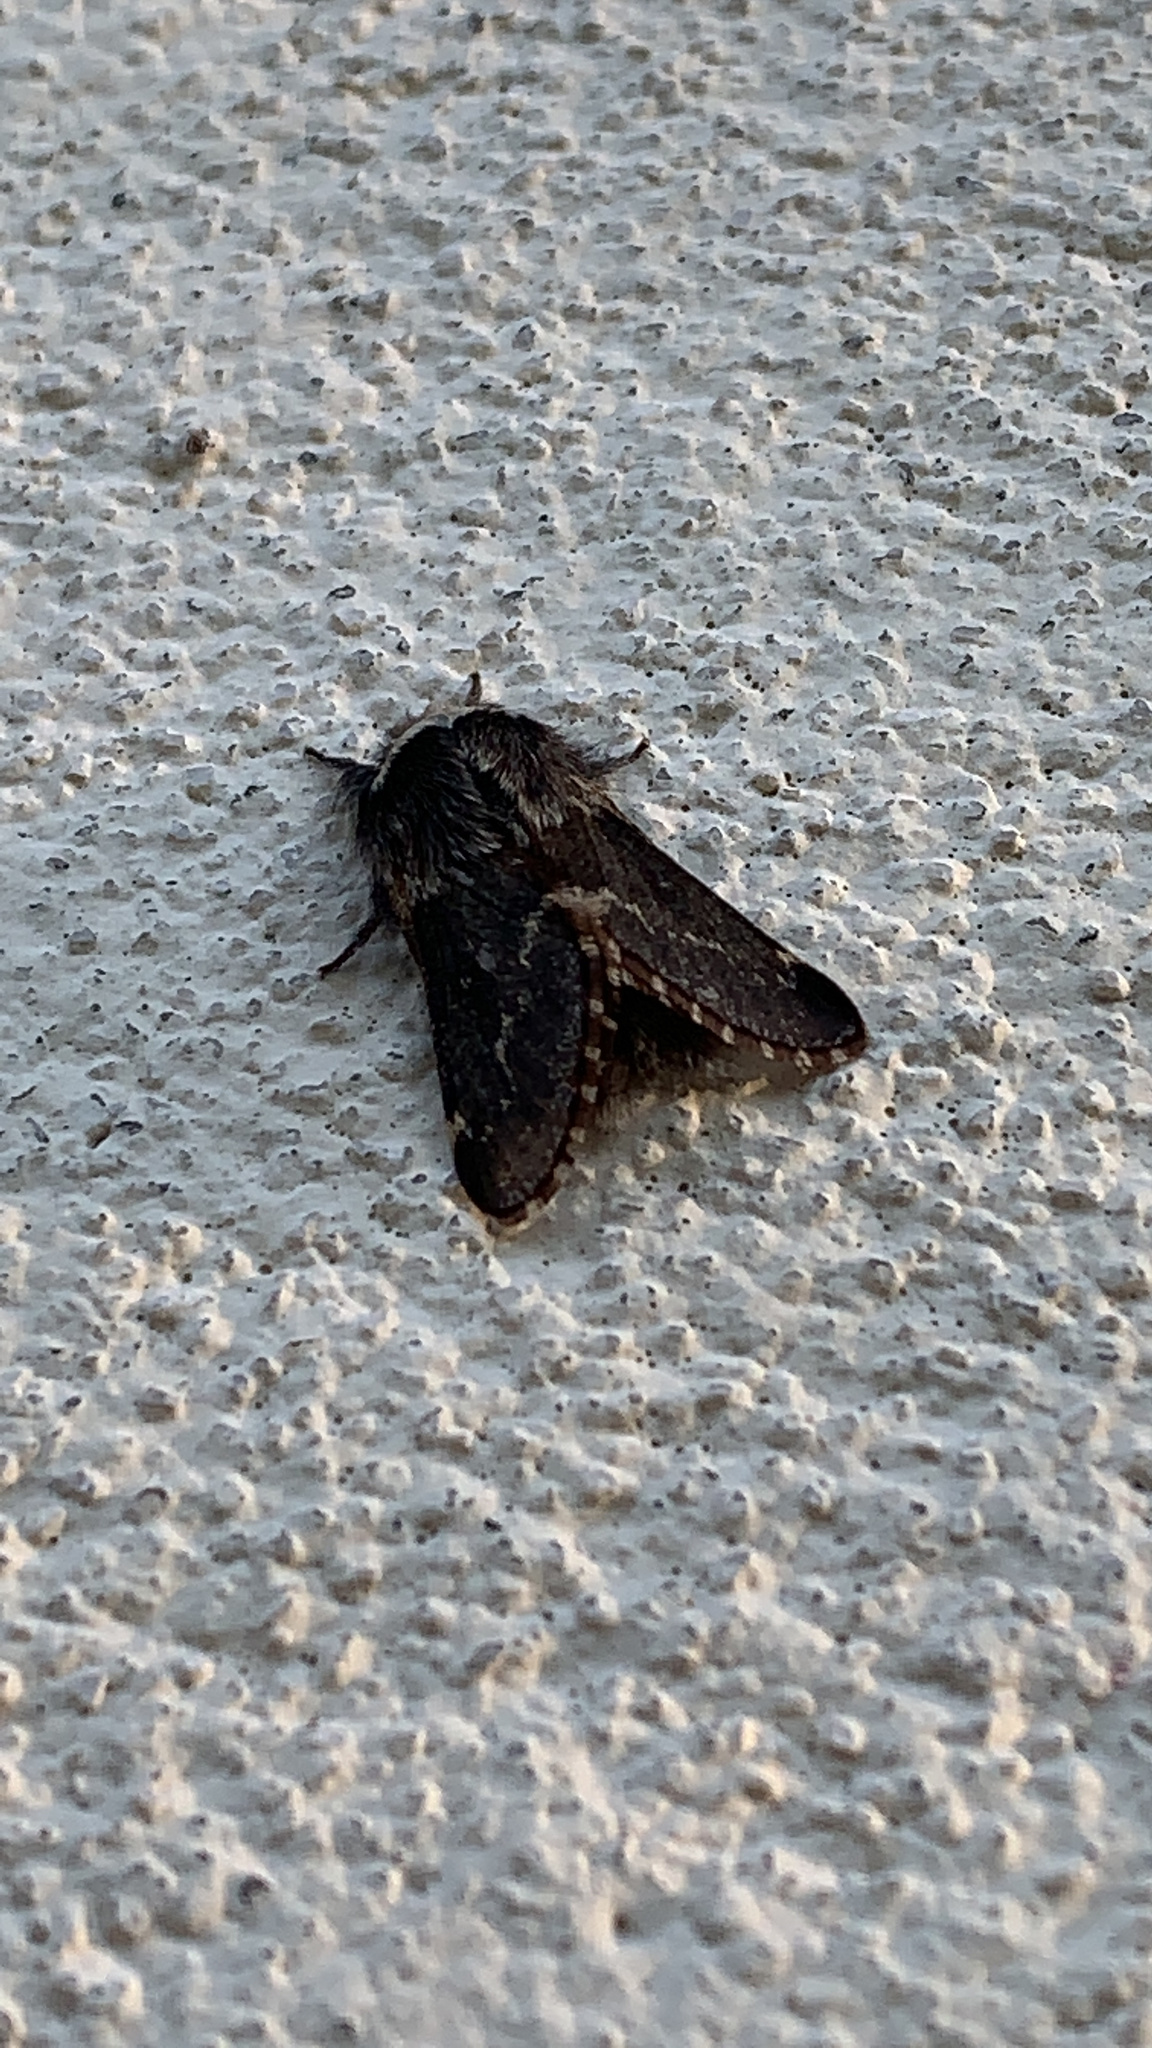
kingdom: Animalia
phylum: Arthropoda
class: Insecta
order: Lepidoptera
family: Lasiocampidae
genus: Poecilocampa
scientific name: Poecilocampa populi
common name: December moth
